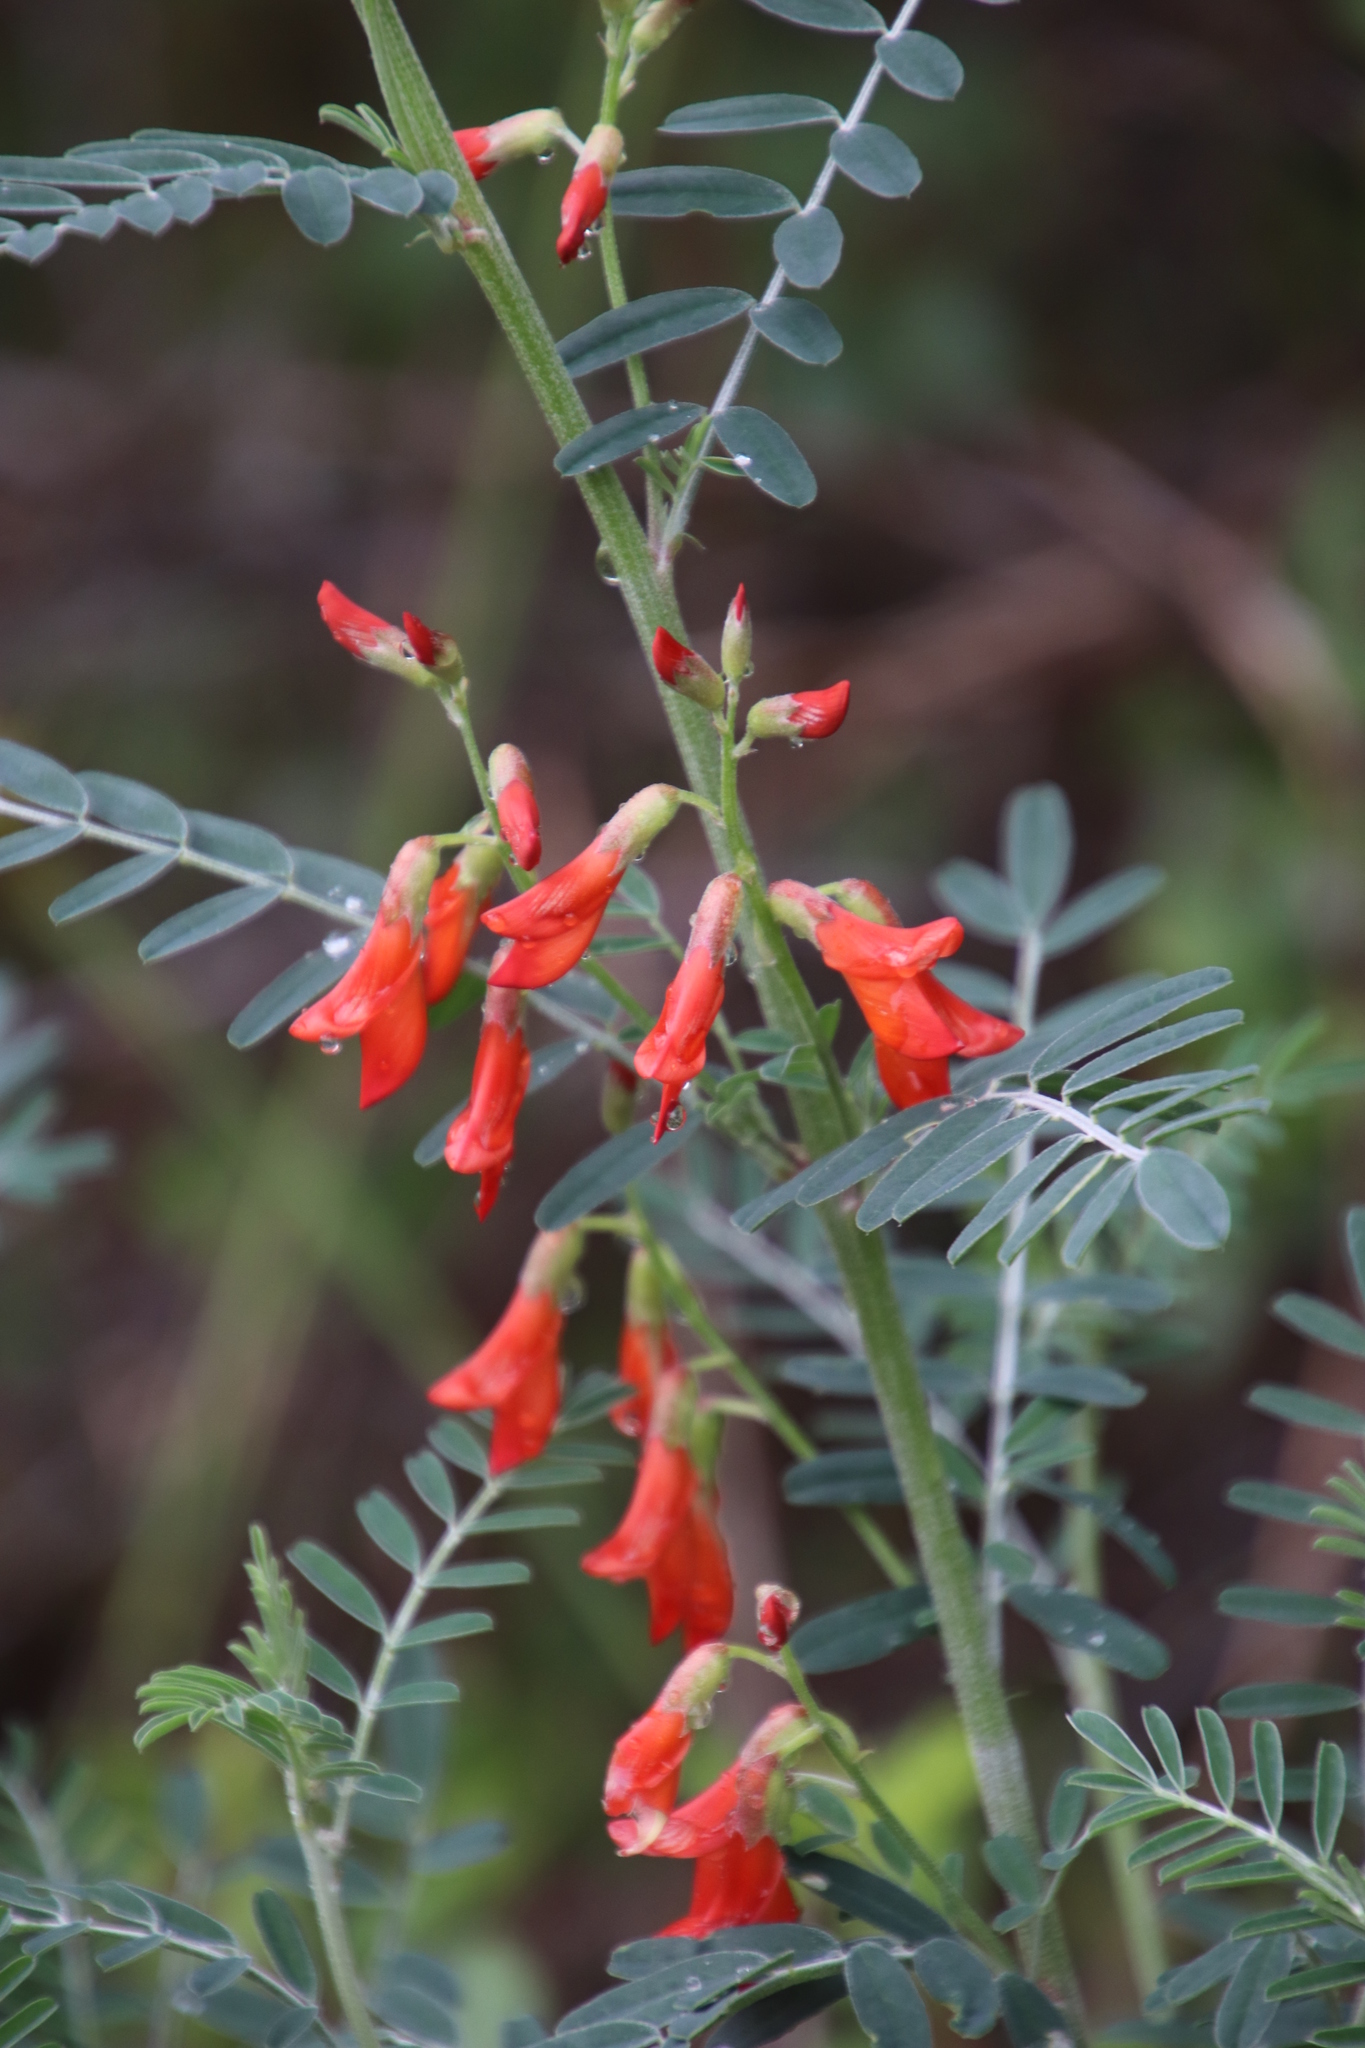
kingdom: Plantae
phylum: Tracheophyta
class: Magnoliopsida
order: Fabales
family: Fabaceae
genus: Lessertia
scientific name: Lessertia frutescens
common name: Balloon-pea
